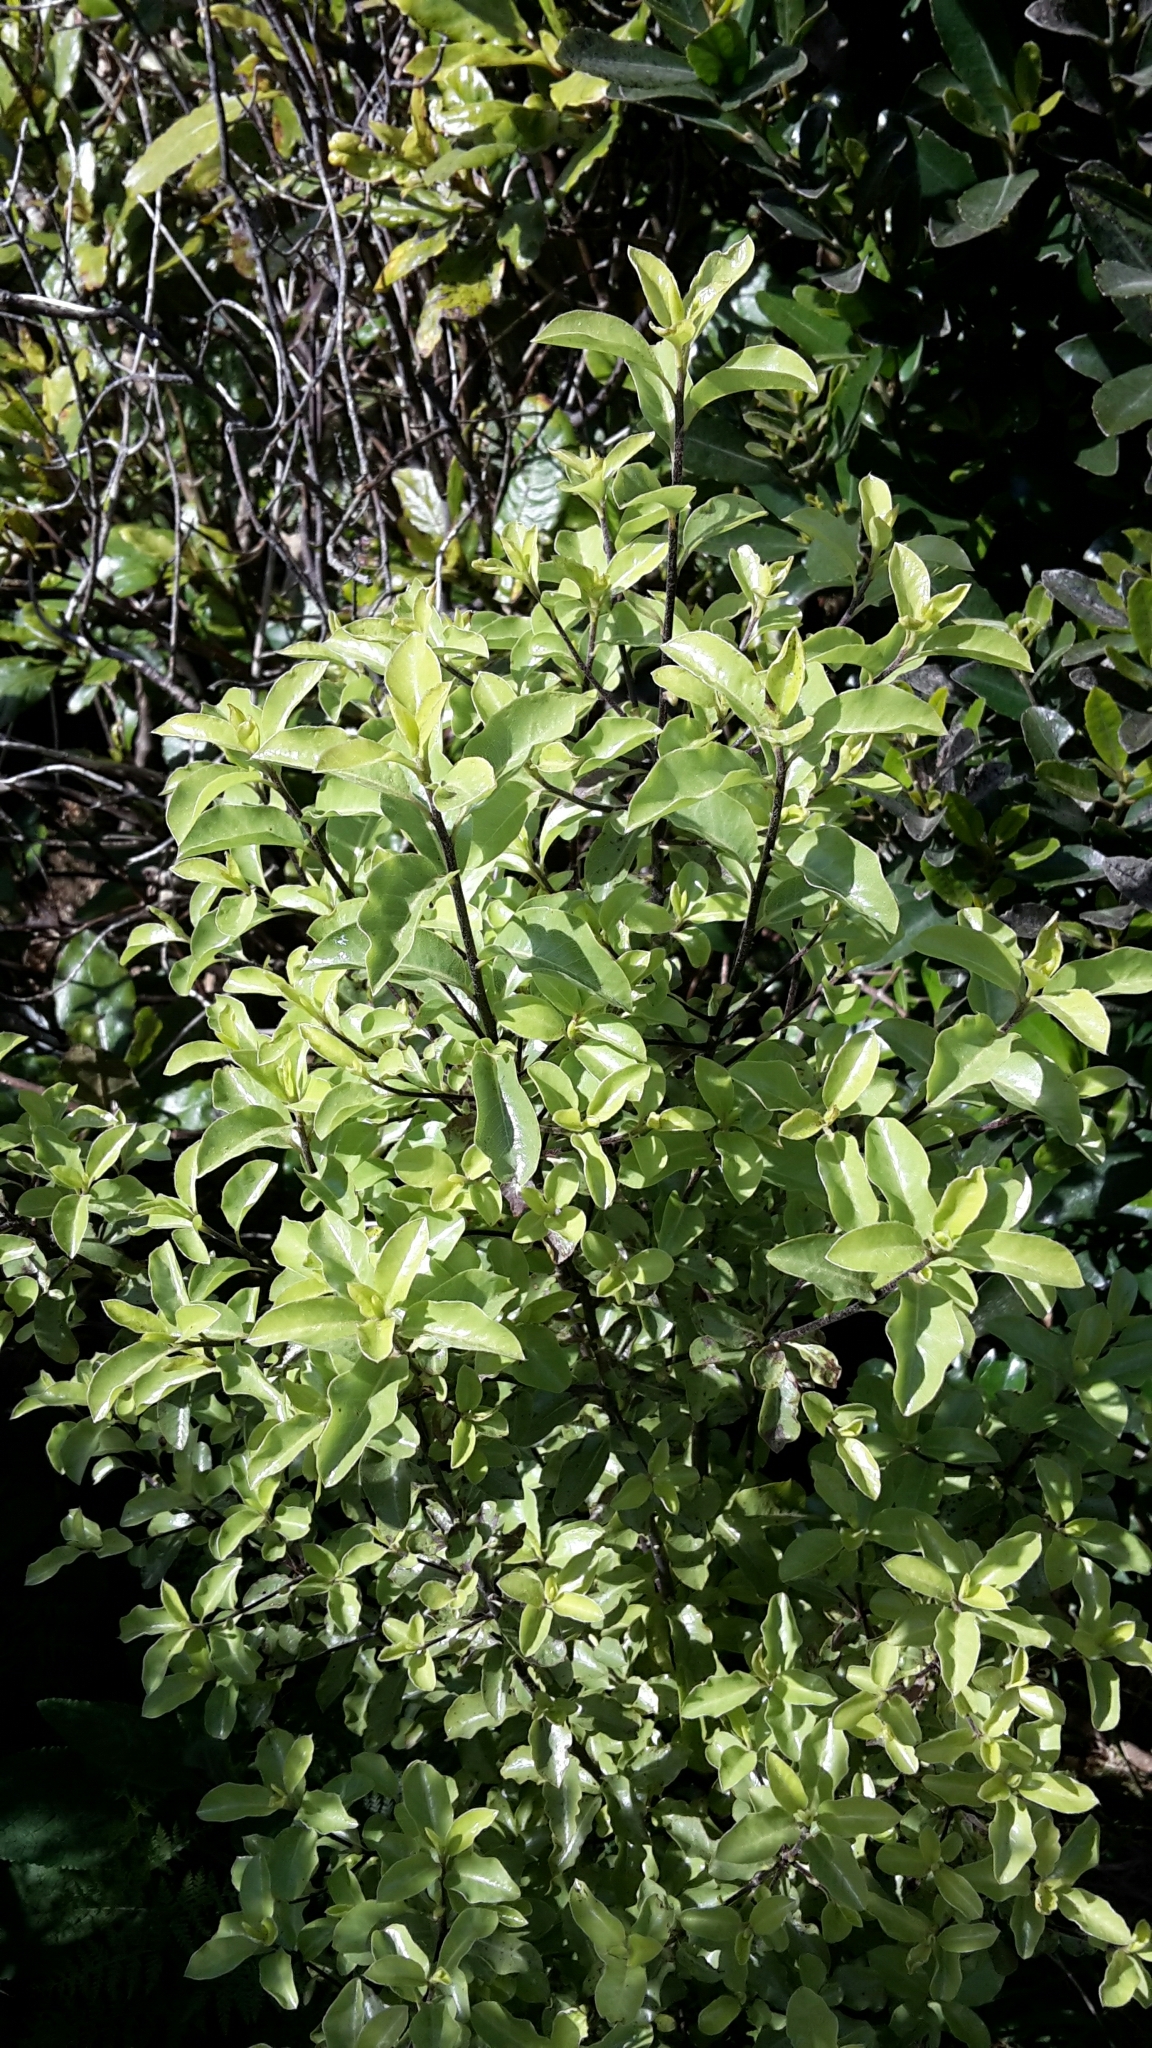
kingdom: Plantae
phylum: Tracheophyta
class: Magnoliopsida
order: Apiales
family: Pittosporaceae
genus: Pittosporum
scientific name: Pittosporum tenuifolium
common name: Kohuhu
